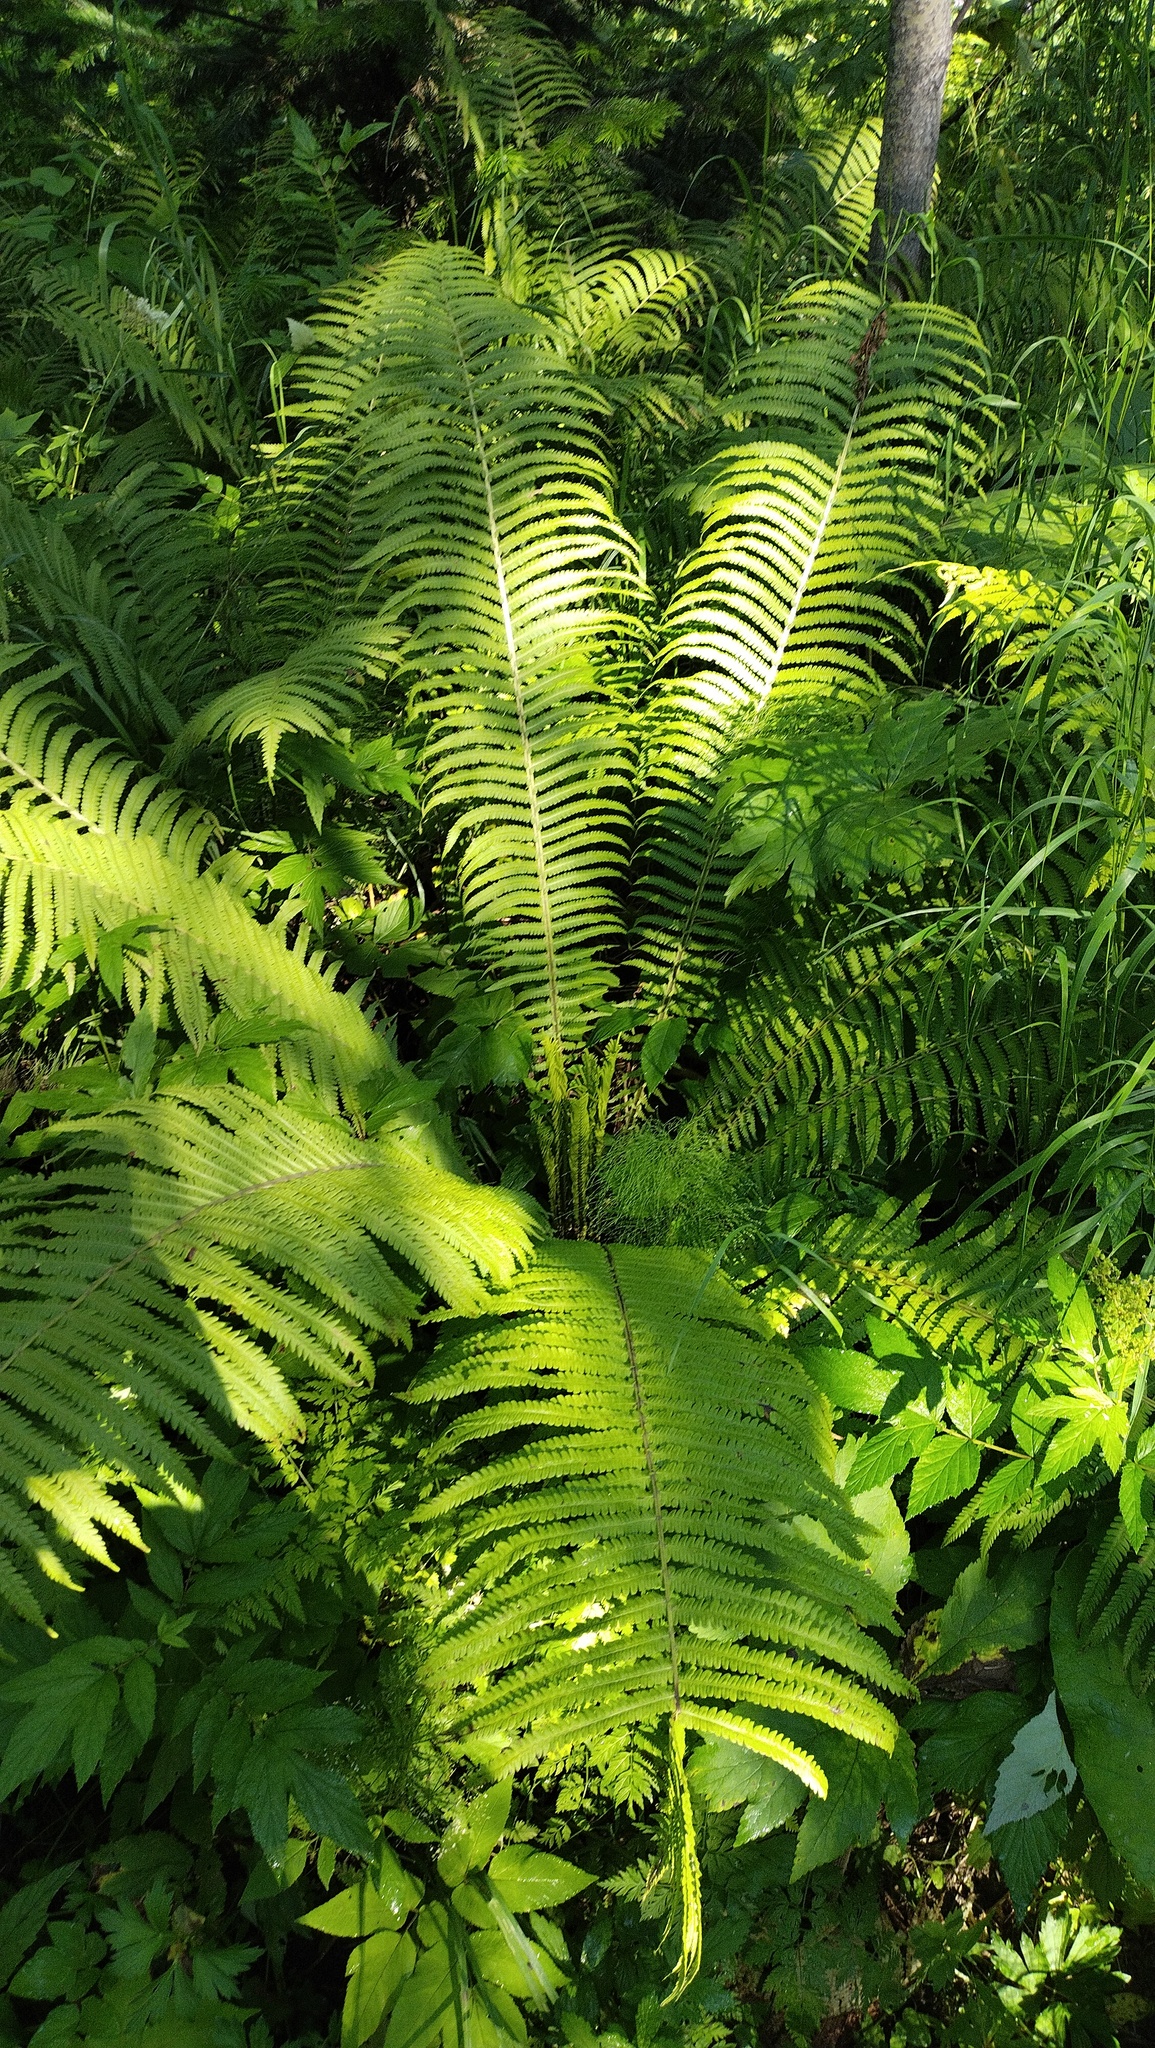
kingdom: Plantae
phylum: Tracheophyta
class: Polypodiopsida
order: Polypodiales
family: Onocleaceae
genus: Matteuccia
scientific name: Matteuccia struthiopteris
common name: Ostrich fern
